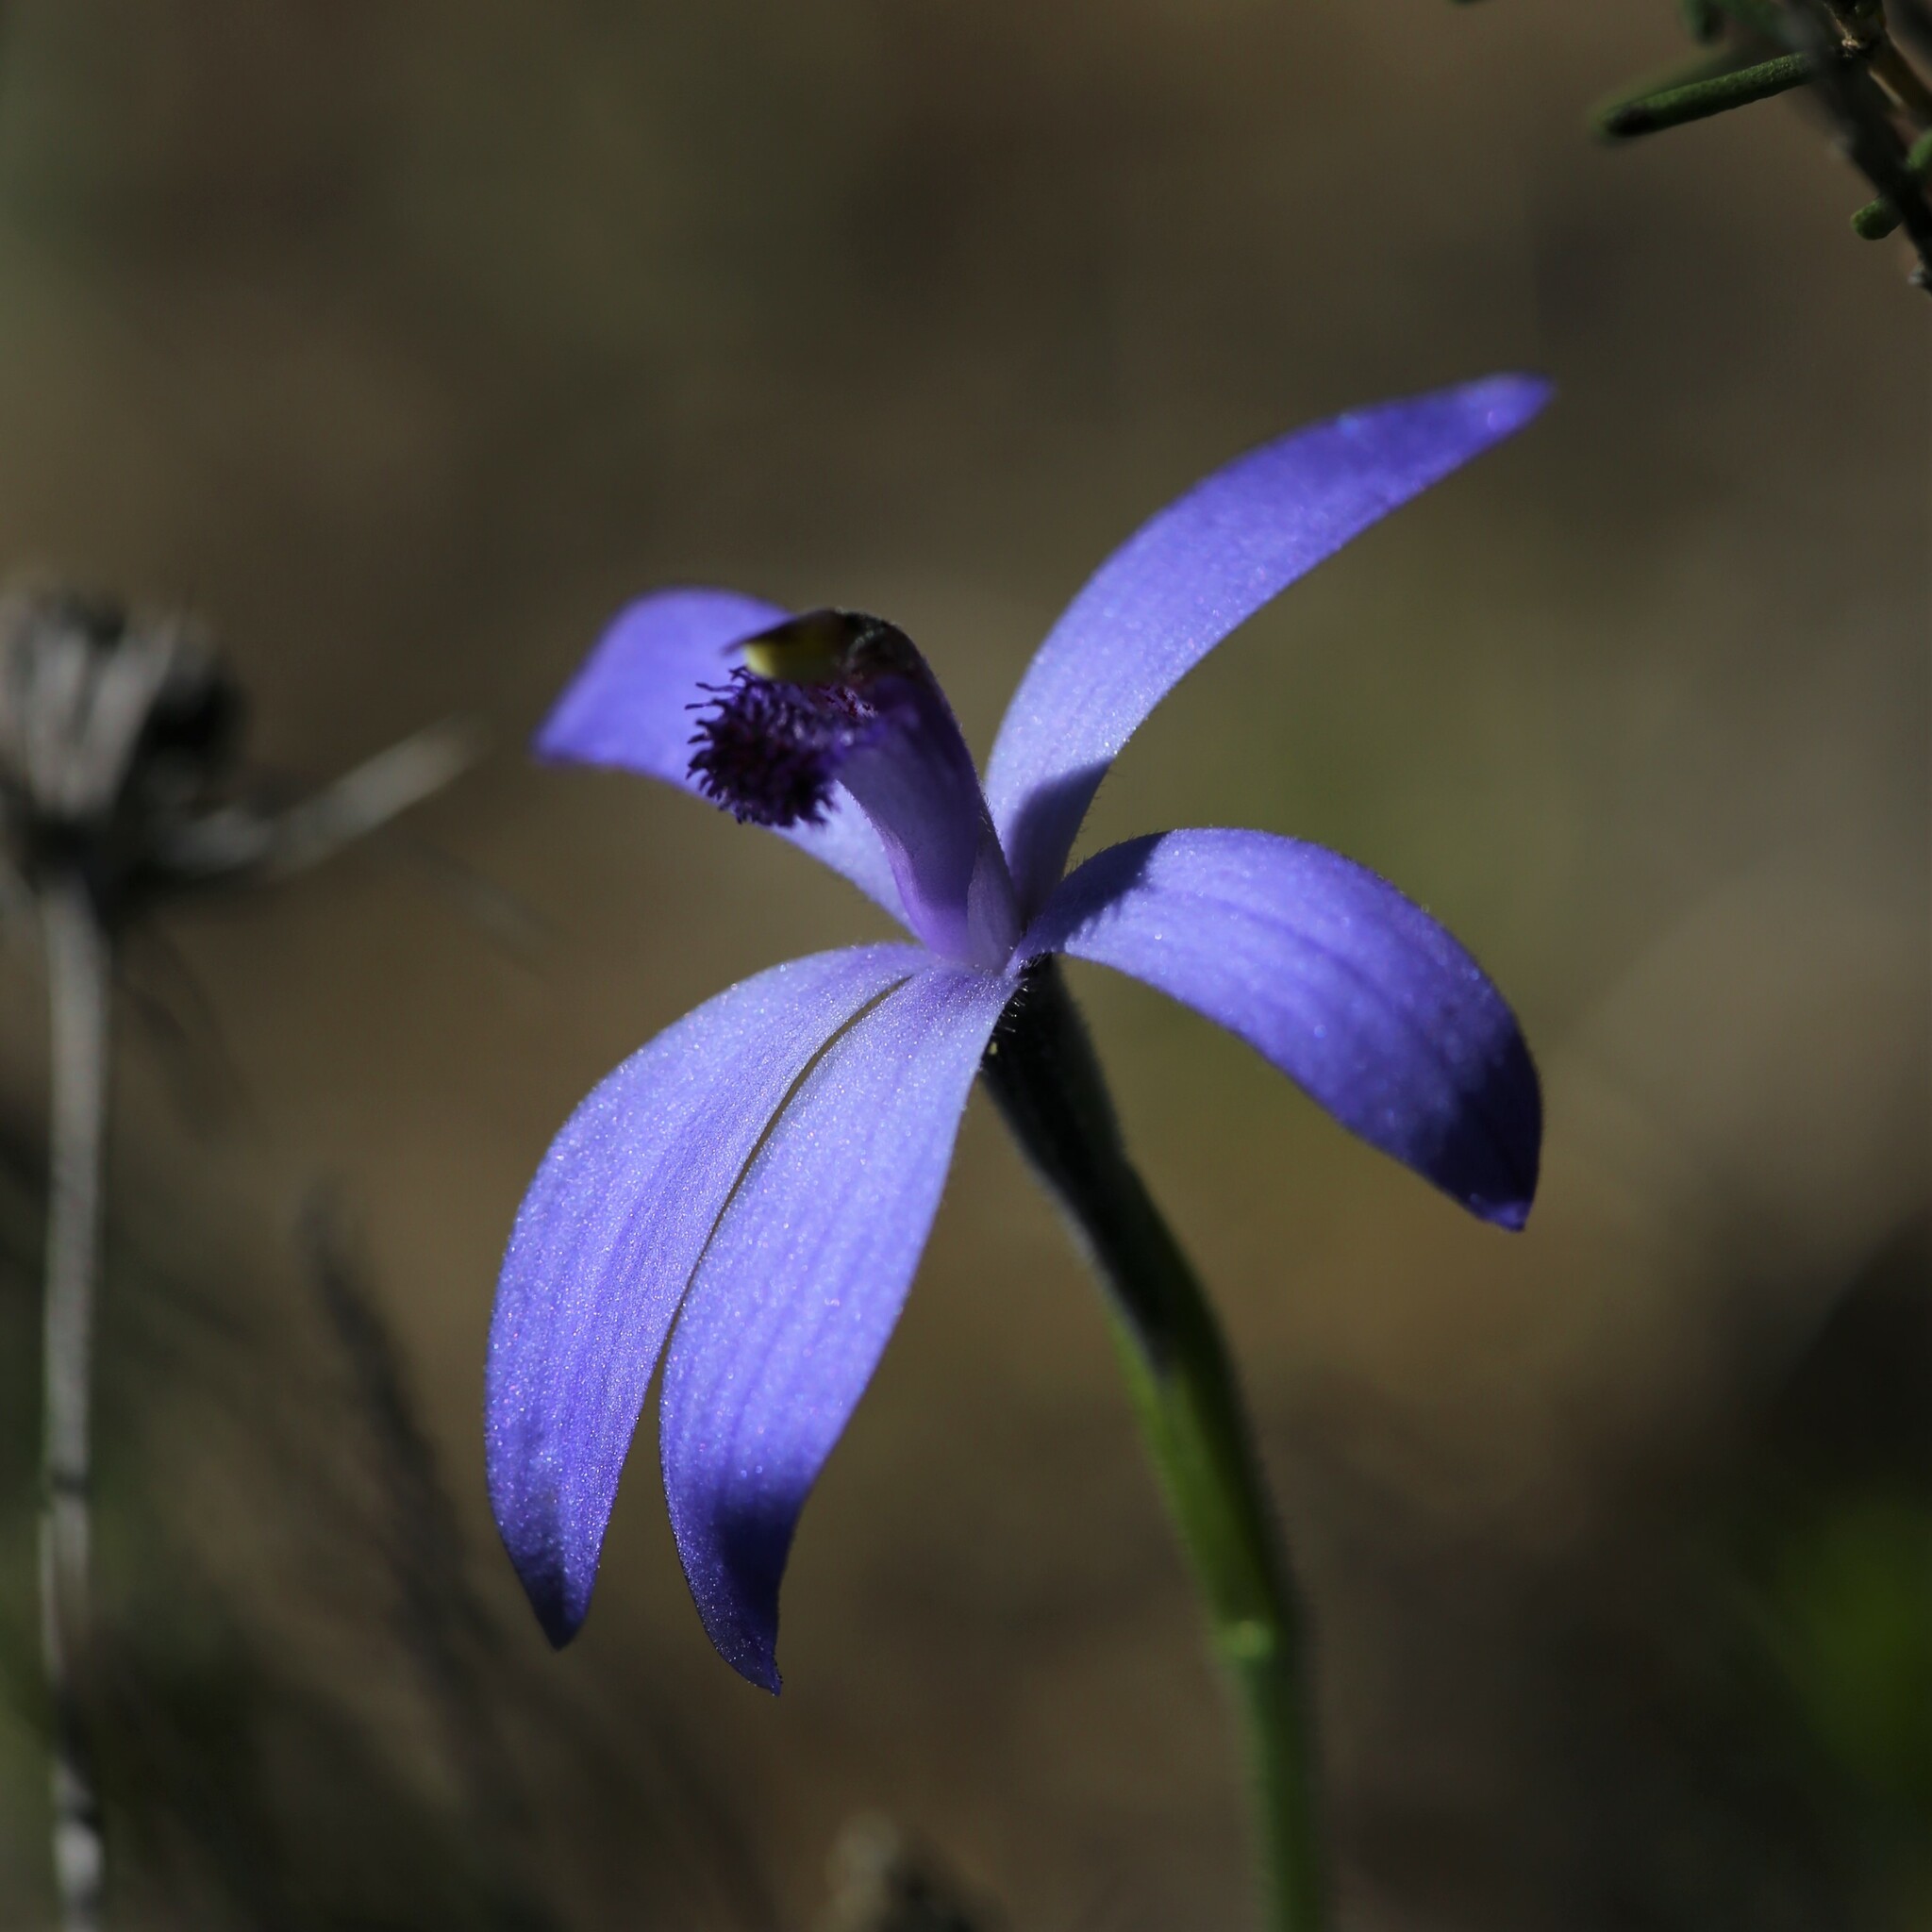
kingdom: Plantae
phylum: Tracheophyta
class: Liliopsida
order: Asparagales
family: Orchidaceae
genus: Pheladenia
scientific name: Pheladenia deformis
